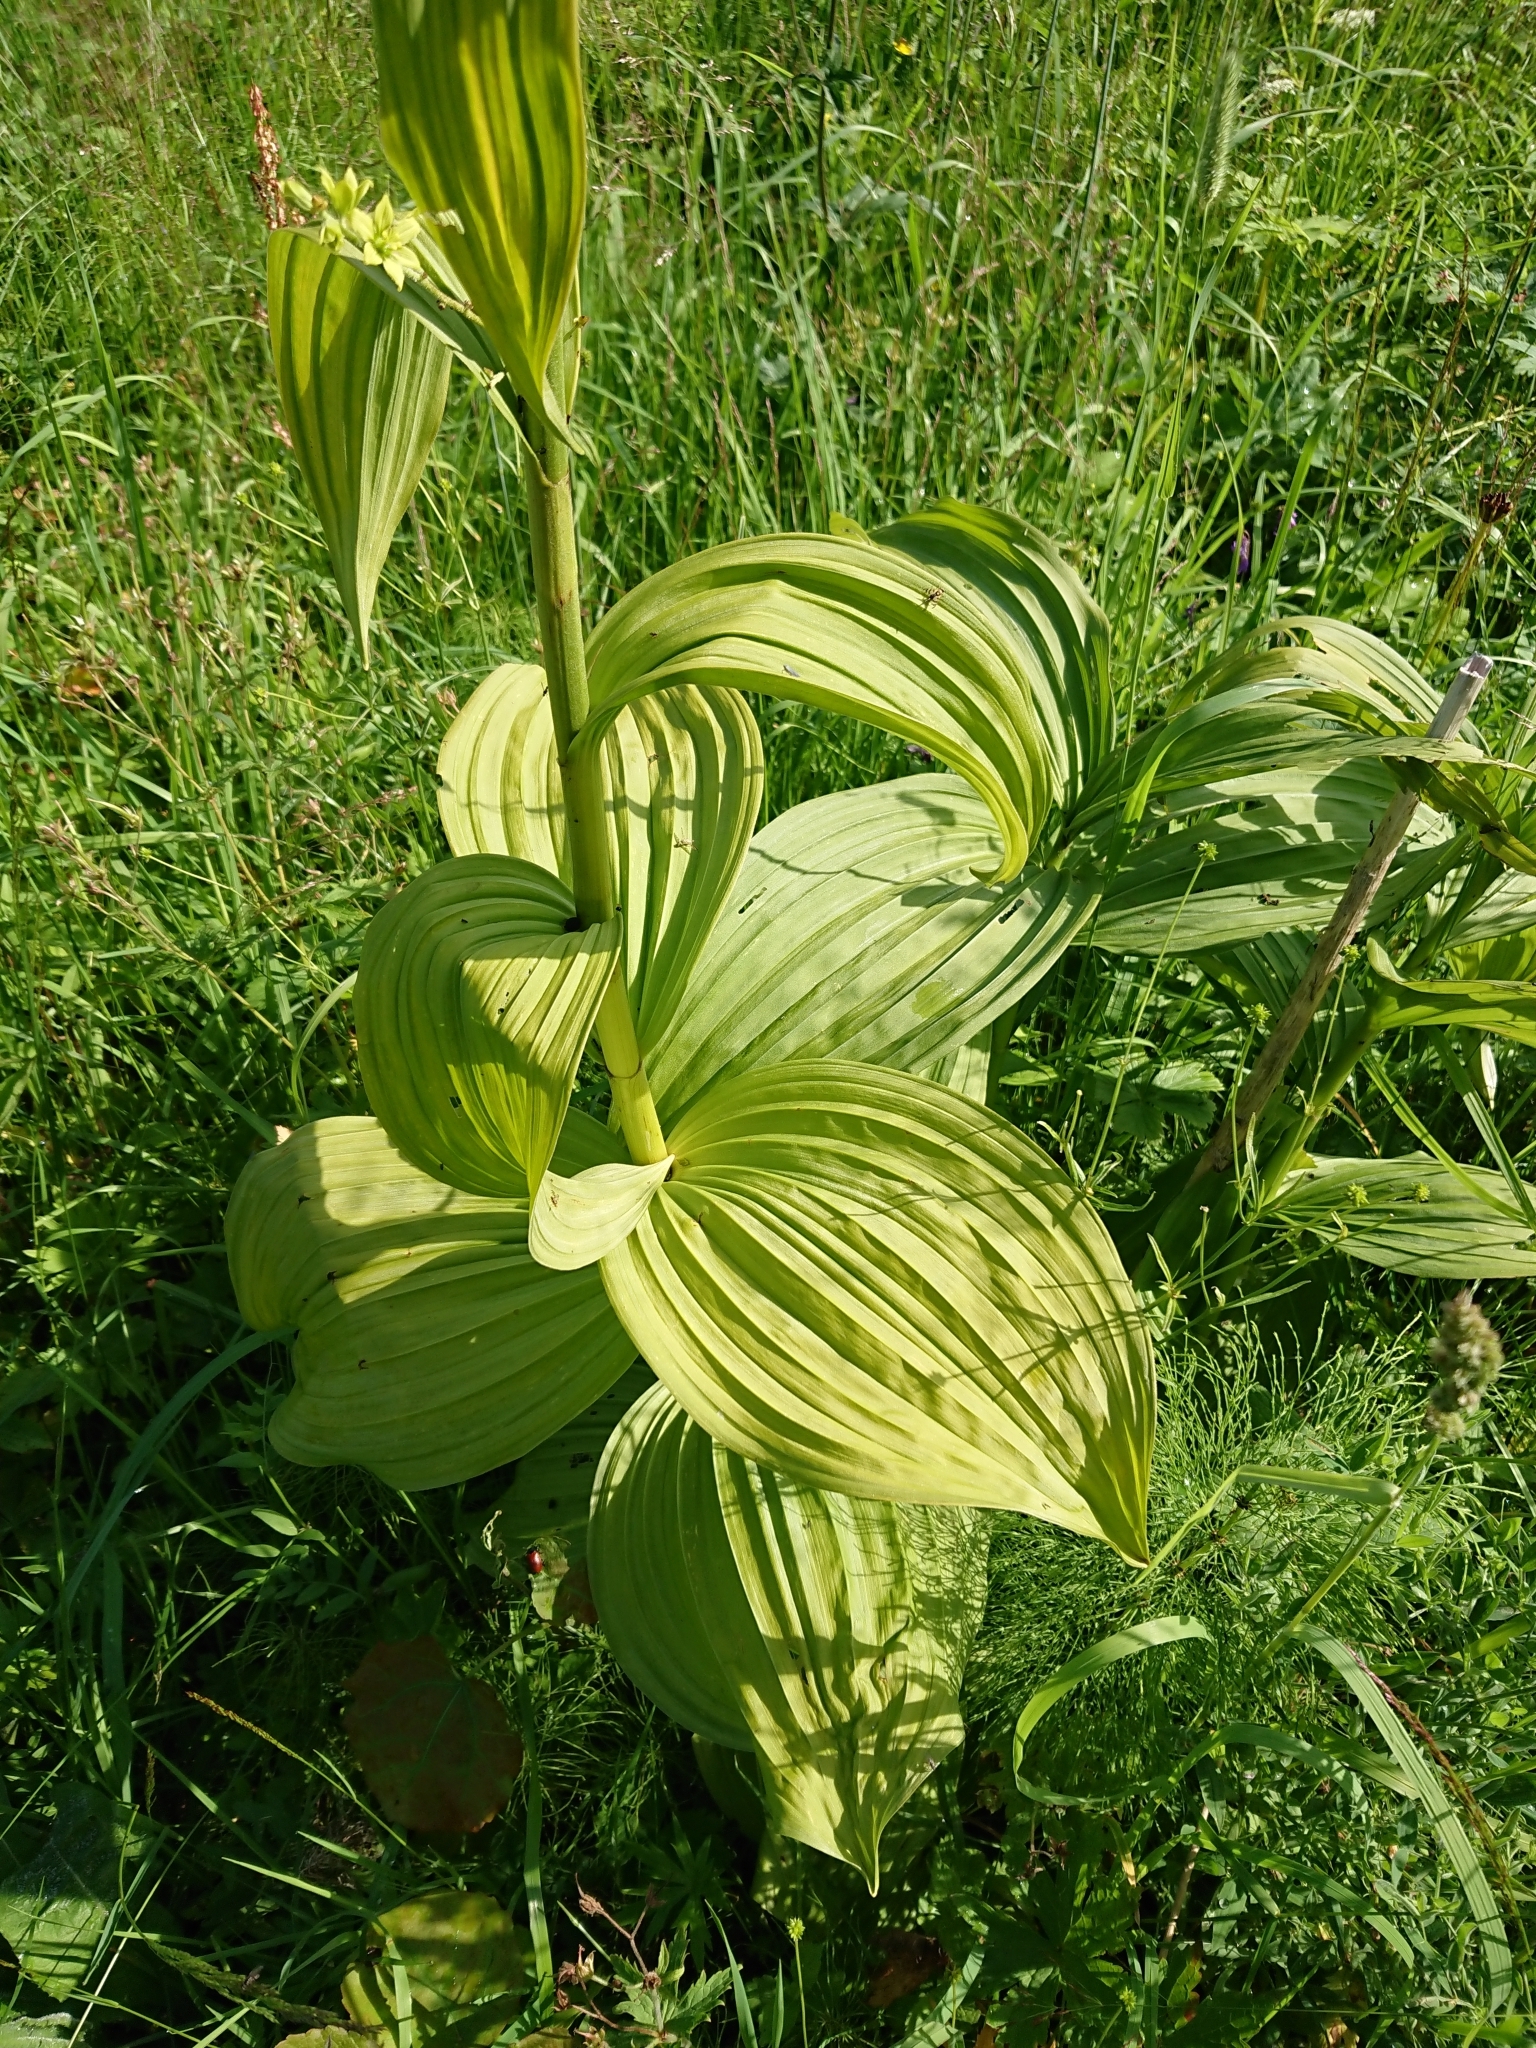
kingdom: Plantae
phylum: Tracheophyta
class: Liliopsida
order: Liliales
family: Melanthiaceae
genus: Veratrum
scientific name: Veratrum lobelianum
